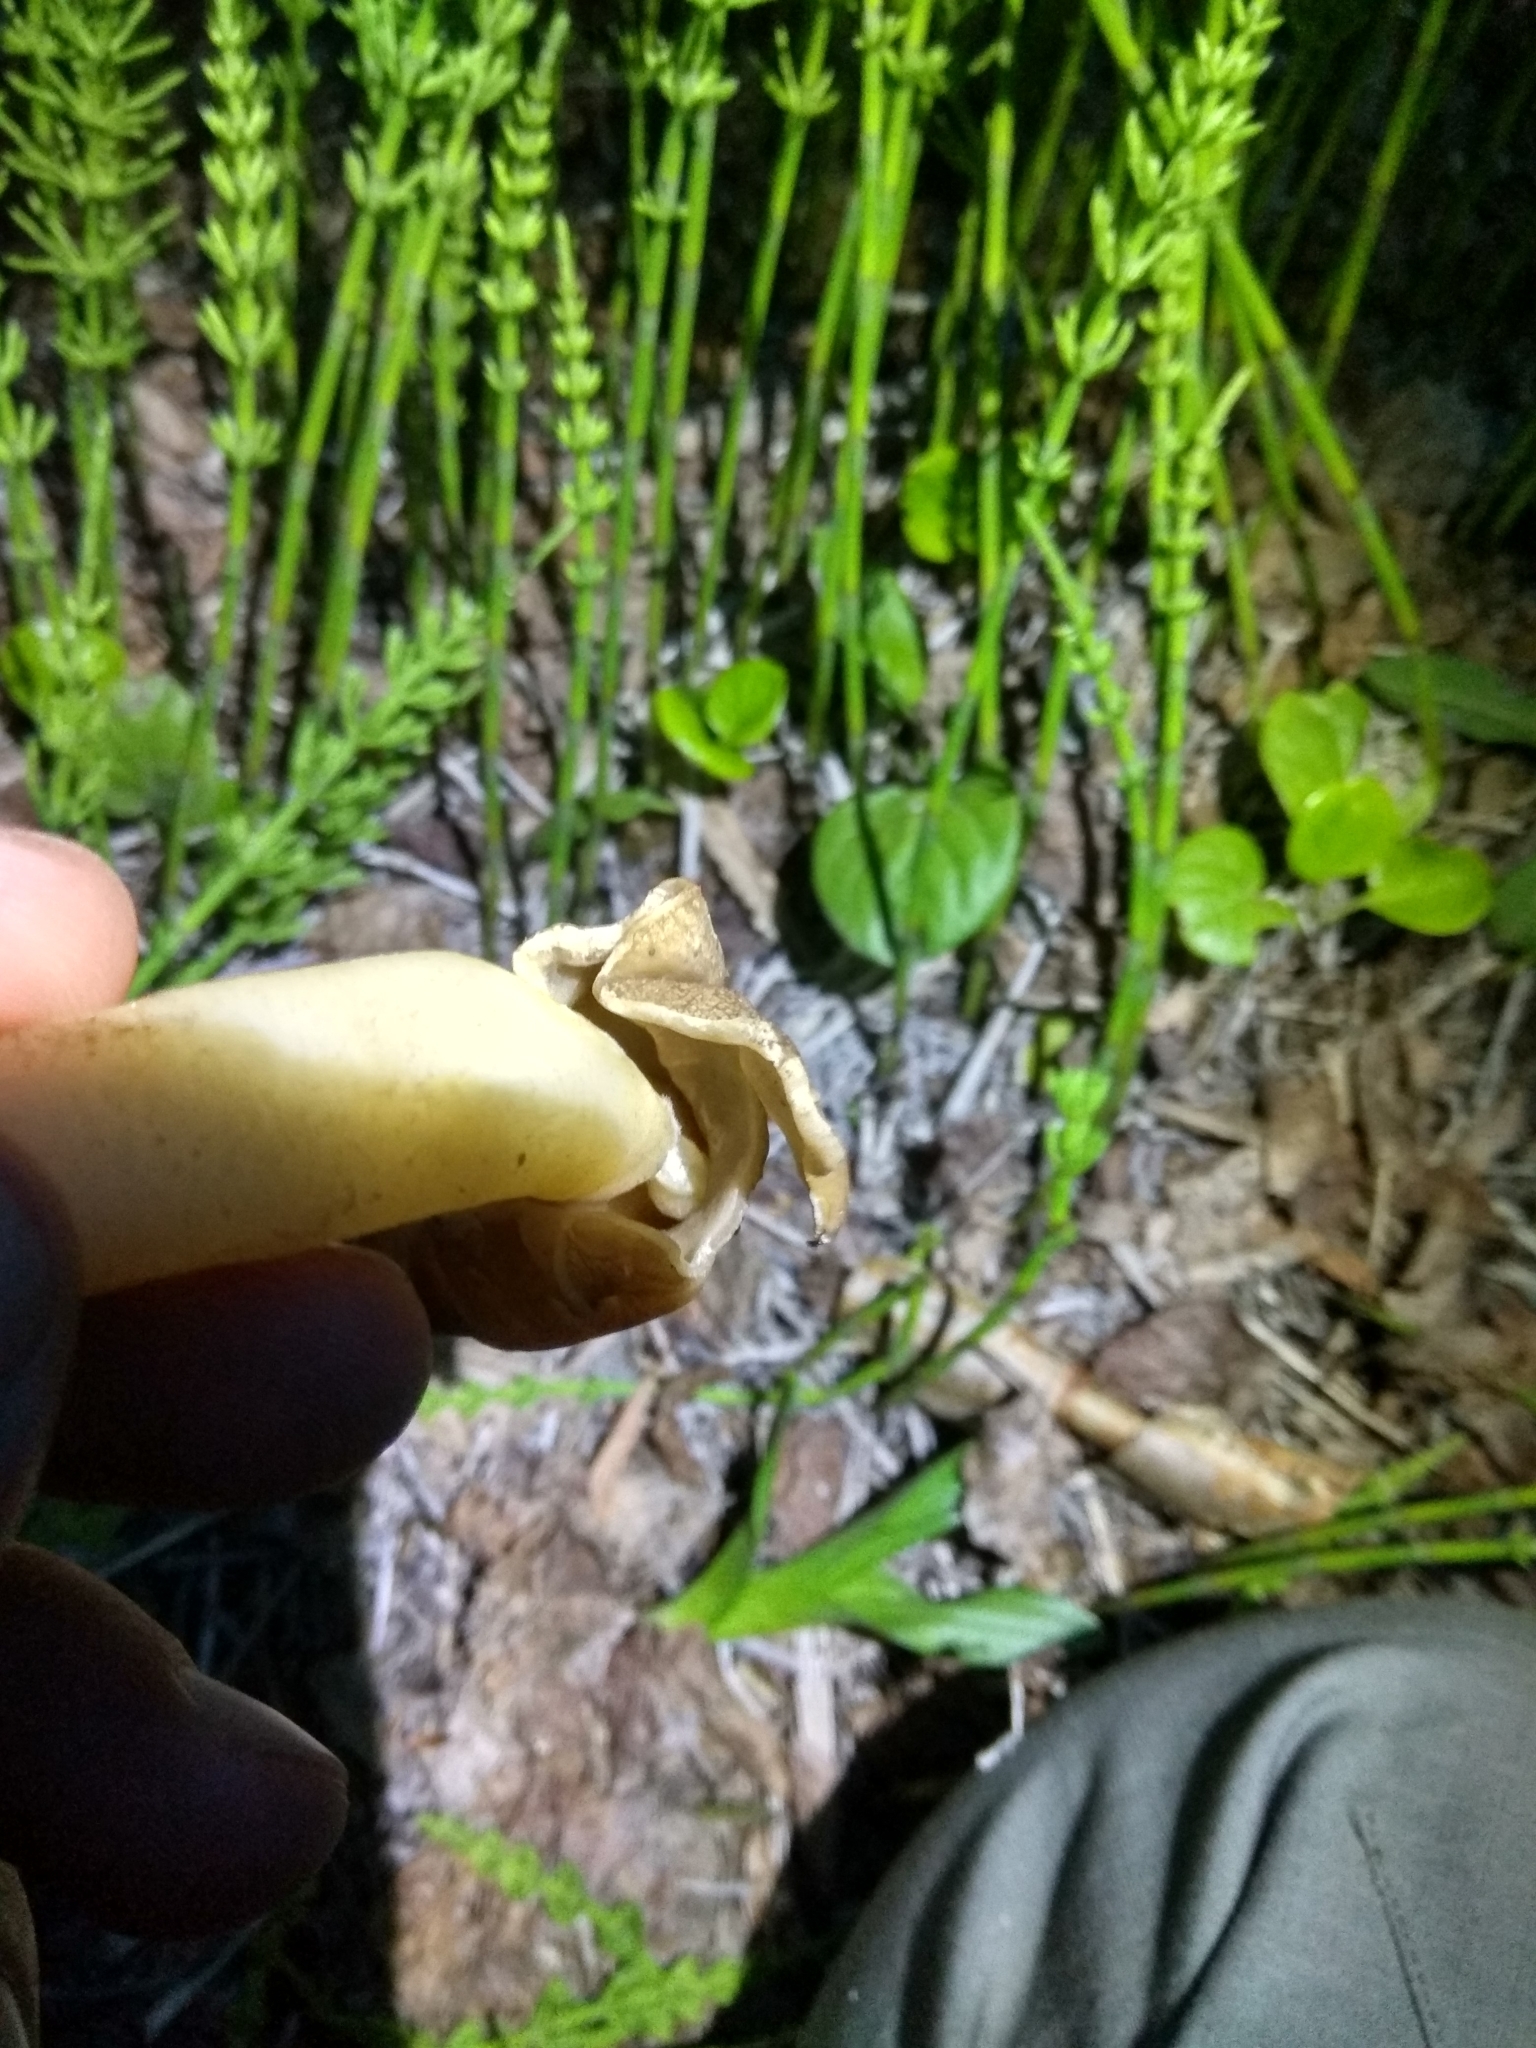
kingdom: Fungi
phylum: Ascomycota
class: Pezizomycetes
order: Pezizales
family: Morchellaceae
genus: Verpa
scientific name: Verpa conica
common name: Thimble morel
